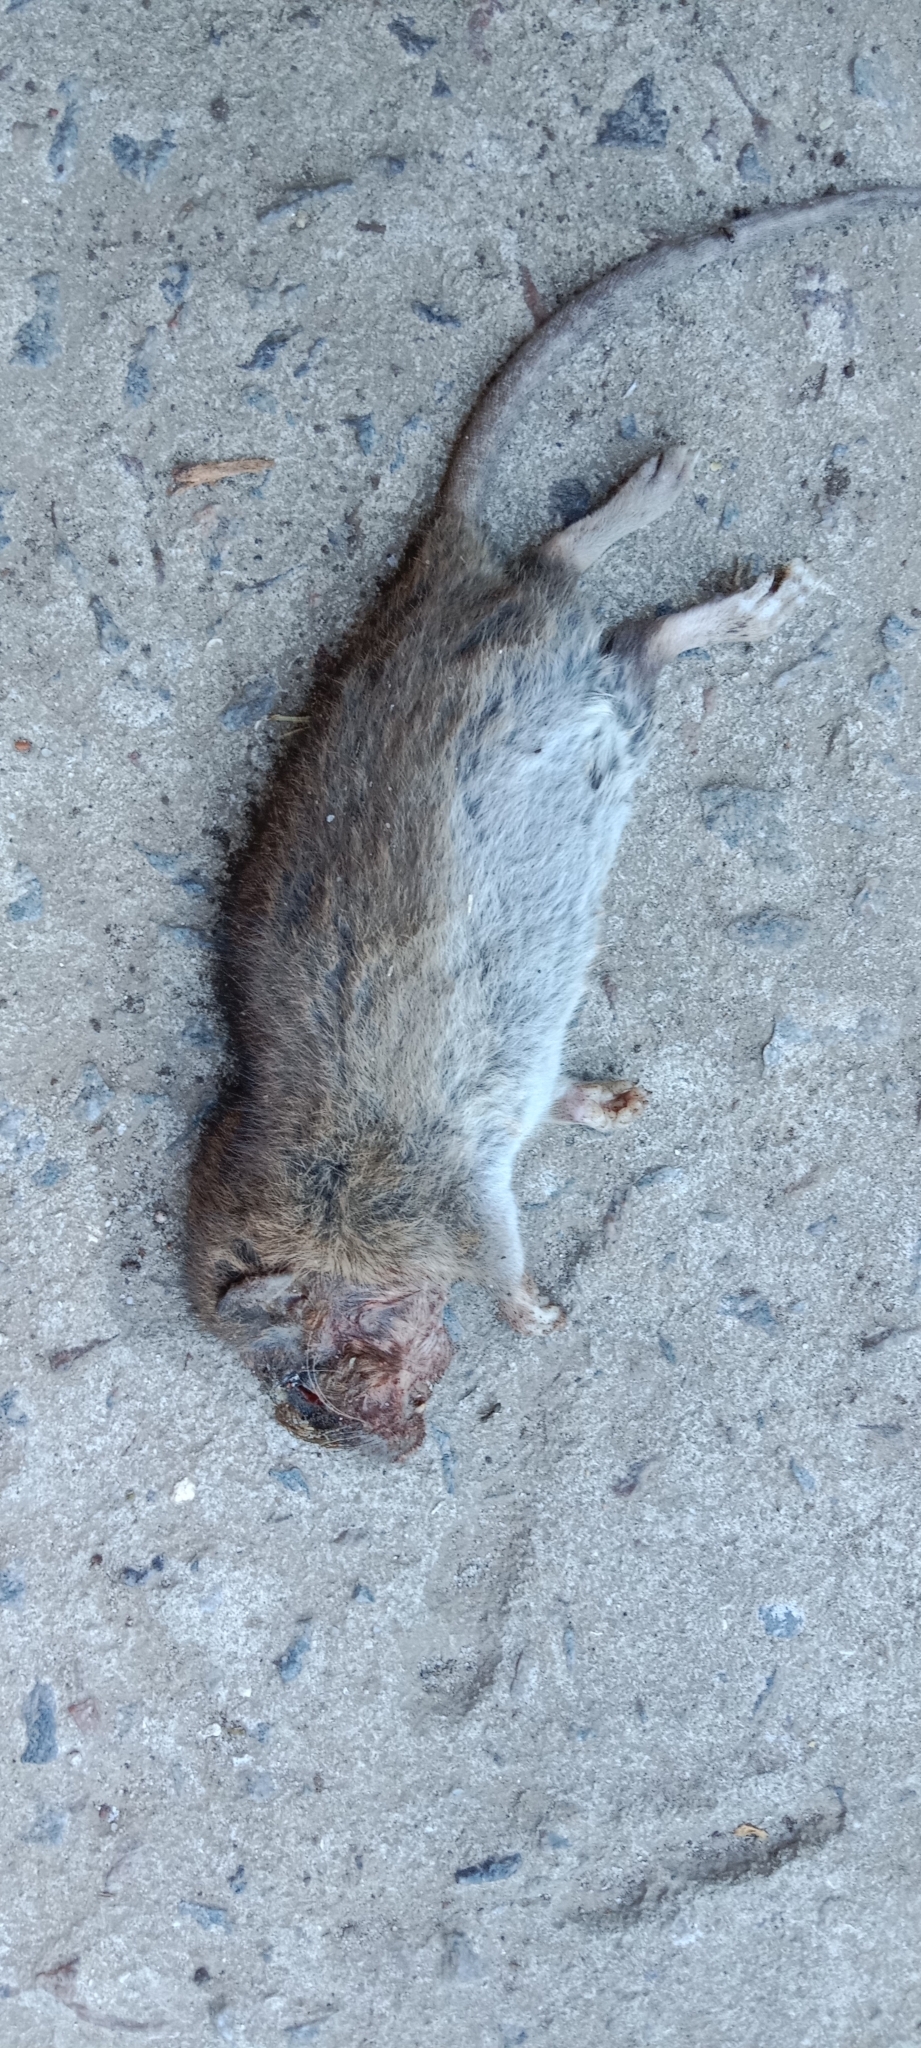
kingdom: Animalia
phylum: Chordata
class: Mammalia
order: Rodentia
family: Muridae
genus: Rattus
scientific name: Rattus norvegicus
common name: Brown rat
